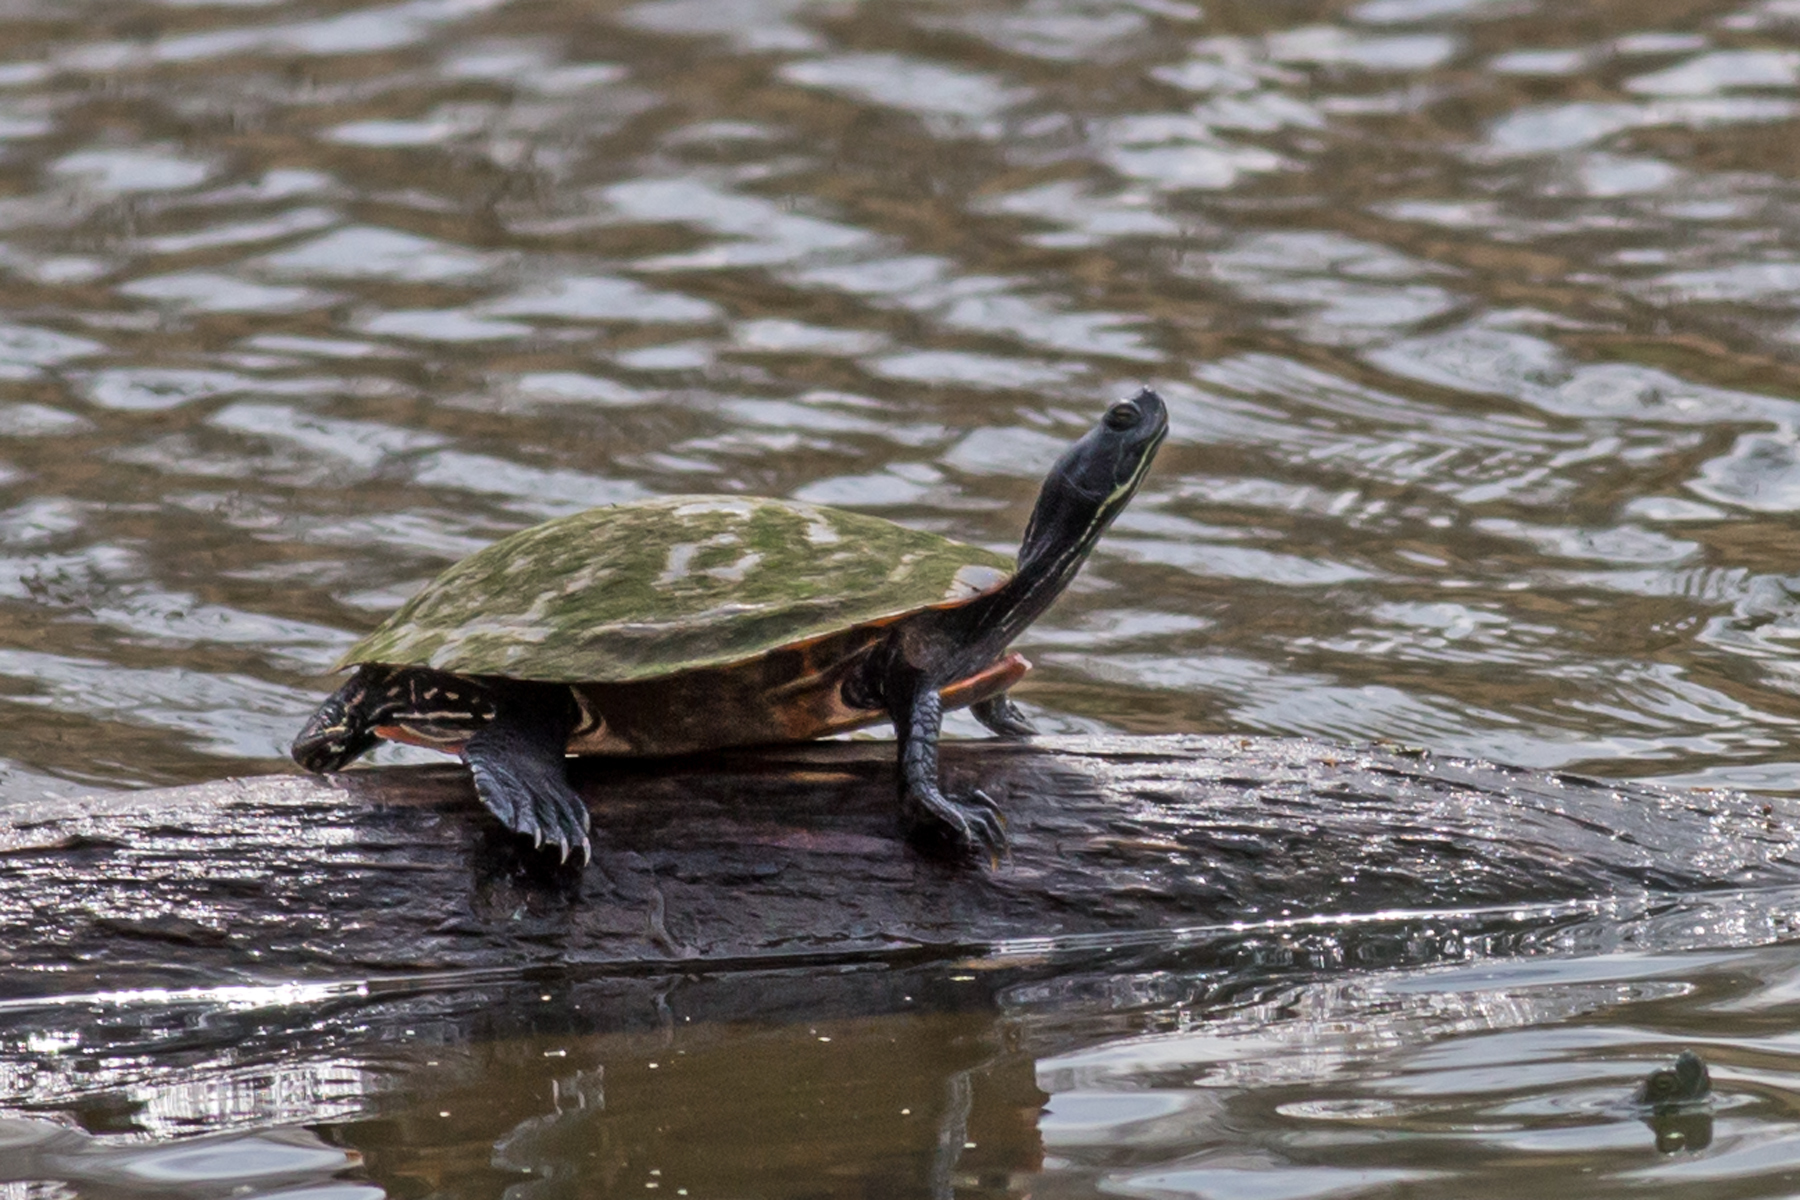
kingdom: Animalia
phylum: Chordata
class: Testudines
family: Emydidae
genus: Pseudemys
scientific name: Pseudemys rubriventris
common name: American red-bellied turtle
